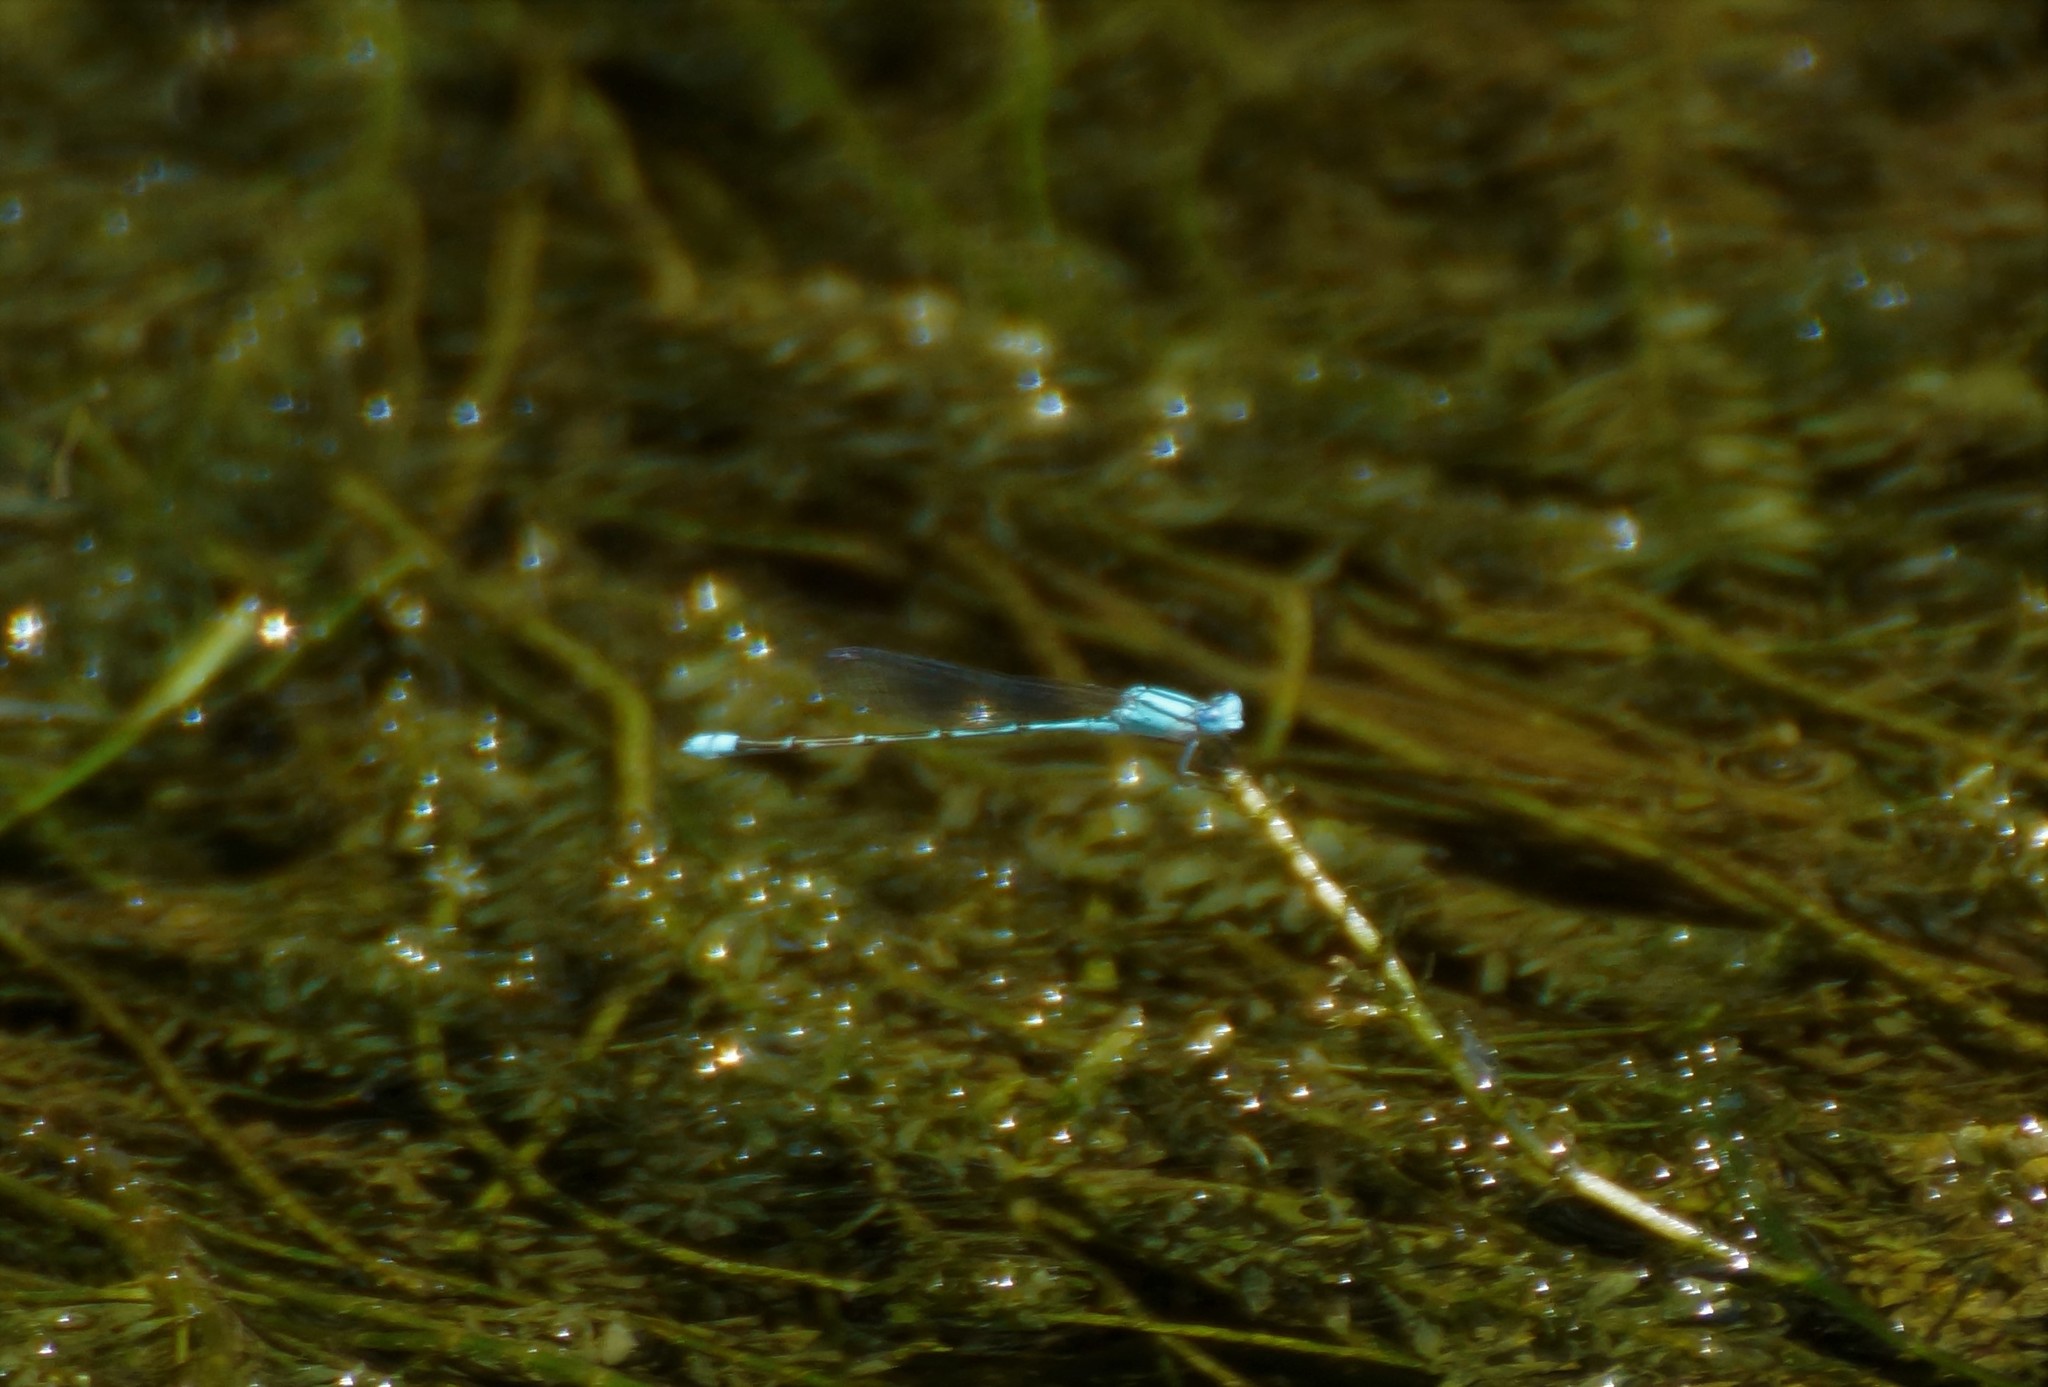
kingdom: Animalia
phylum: Arthropoda
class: Insecta
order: Odonata
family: Coenagrionidae
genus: Pseudagrion
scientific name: Pseudagrion microcephalum
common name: Blue riverdamsel
